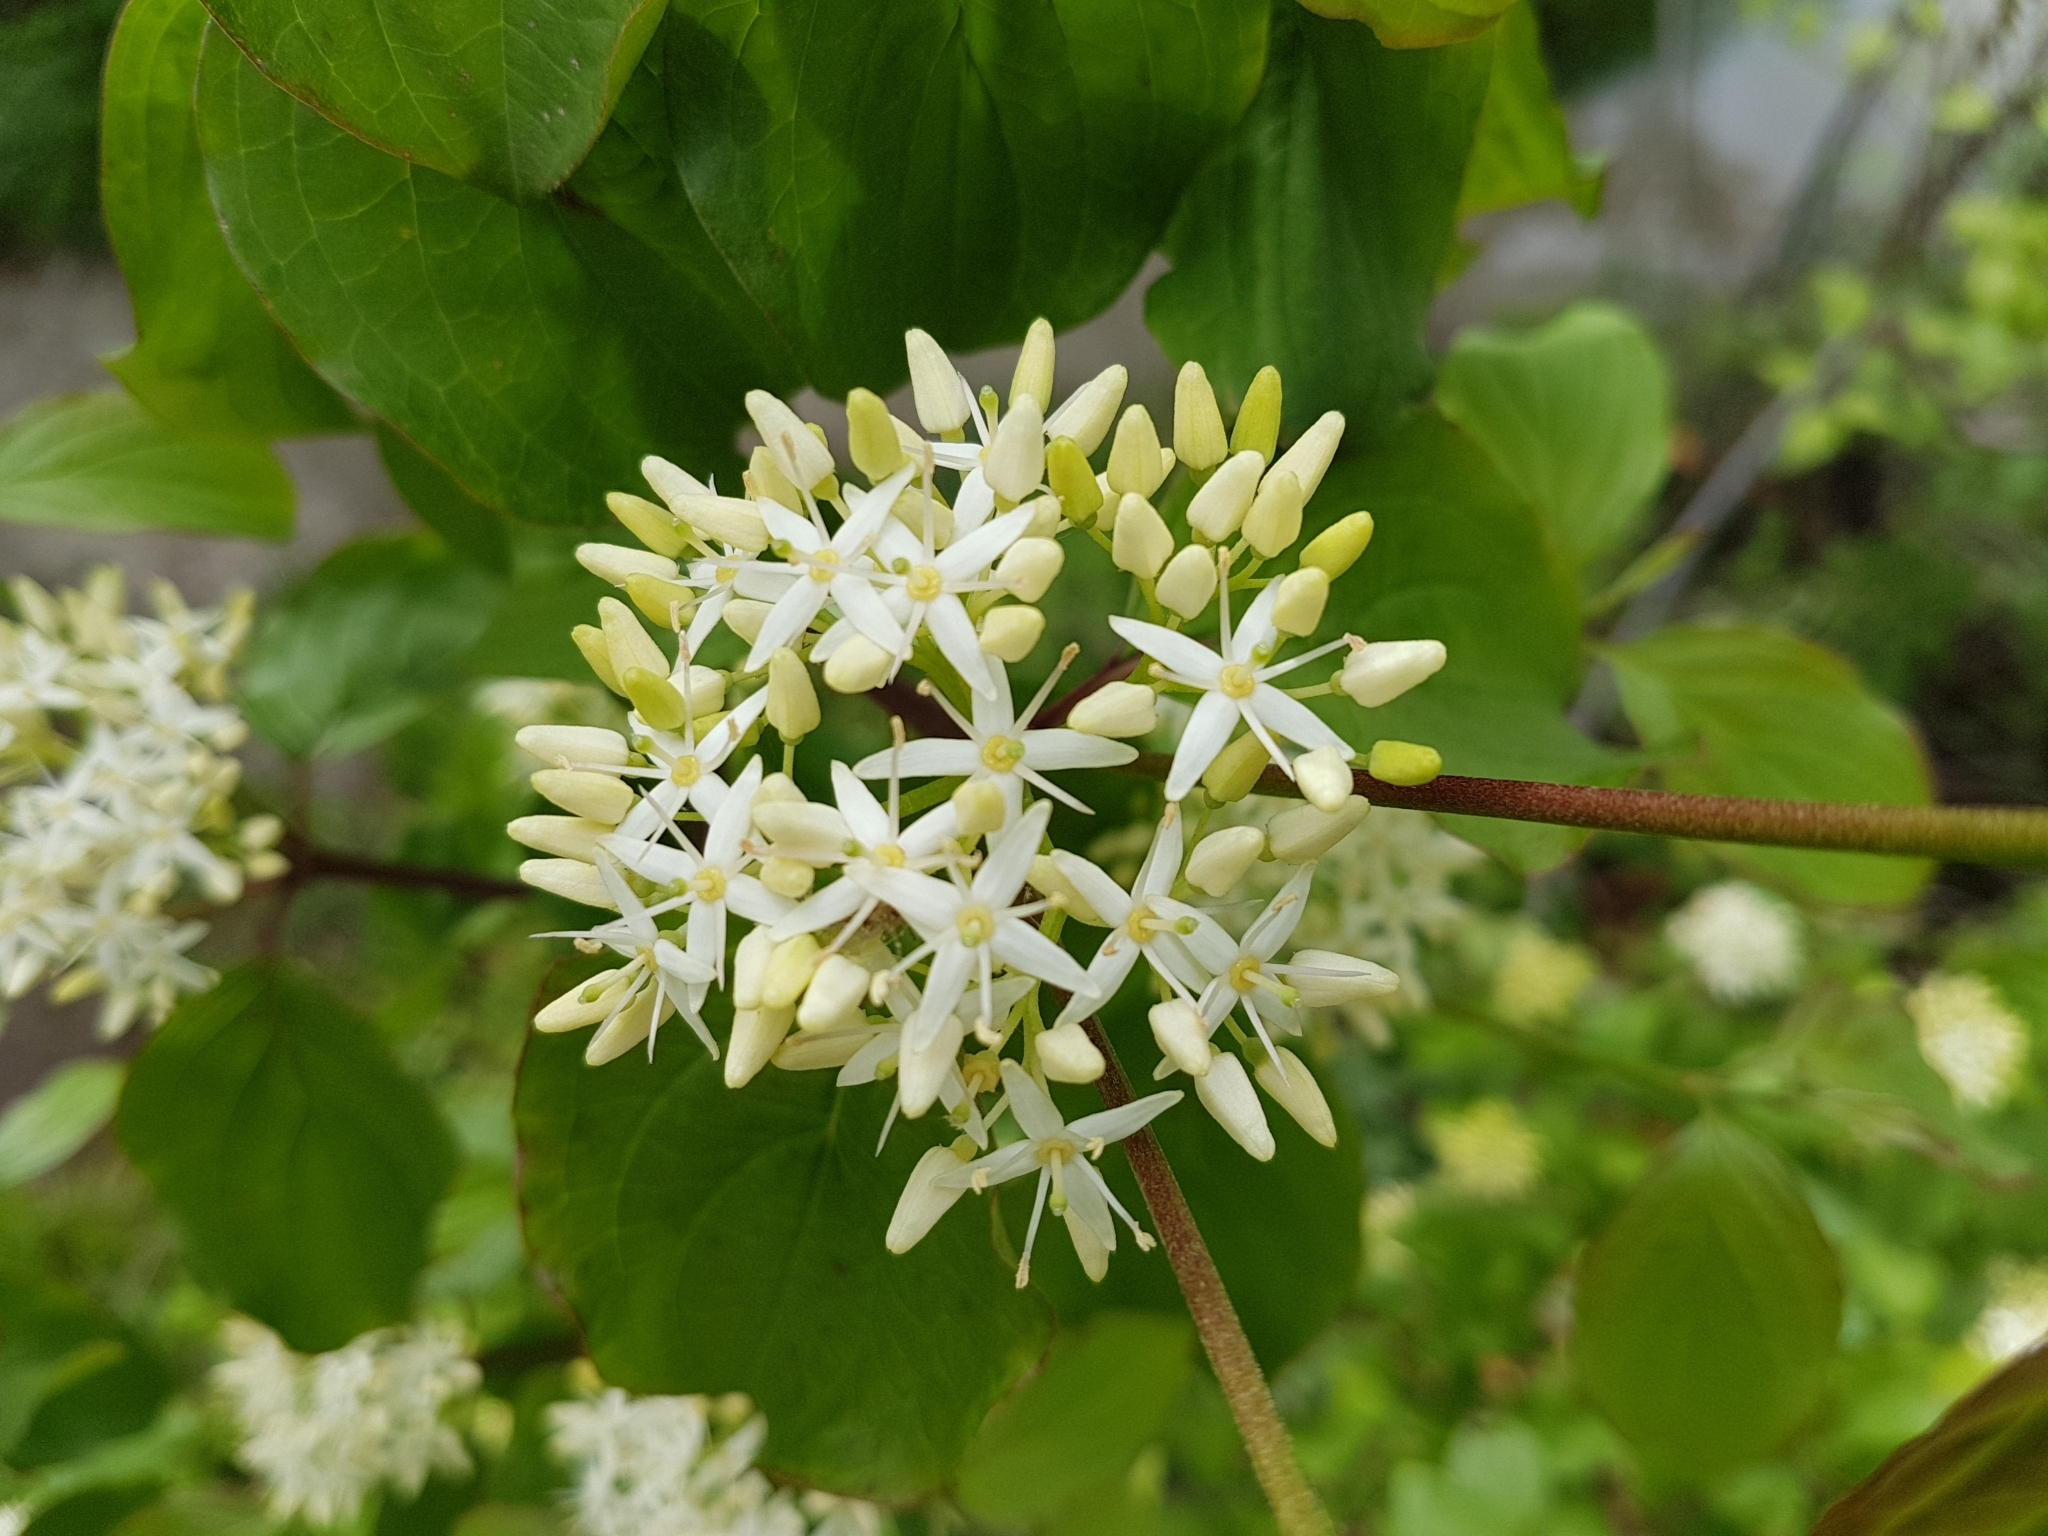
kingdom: Plantae
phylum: Tracheophyta
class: Magnoliopsida
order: Cornales
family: Cornaceae
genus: Cornus
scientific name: Cornus sanguinea
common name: Dogwood
